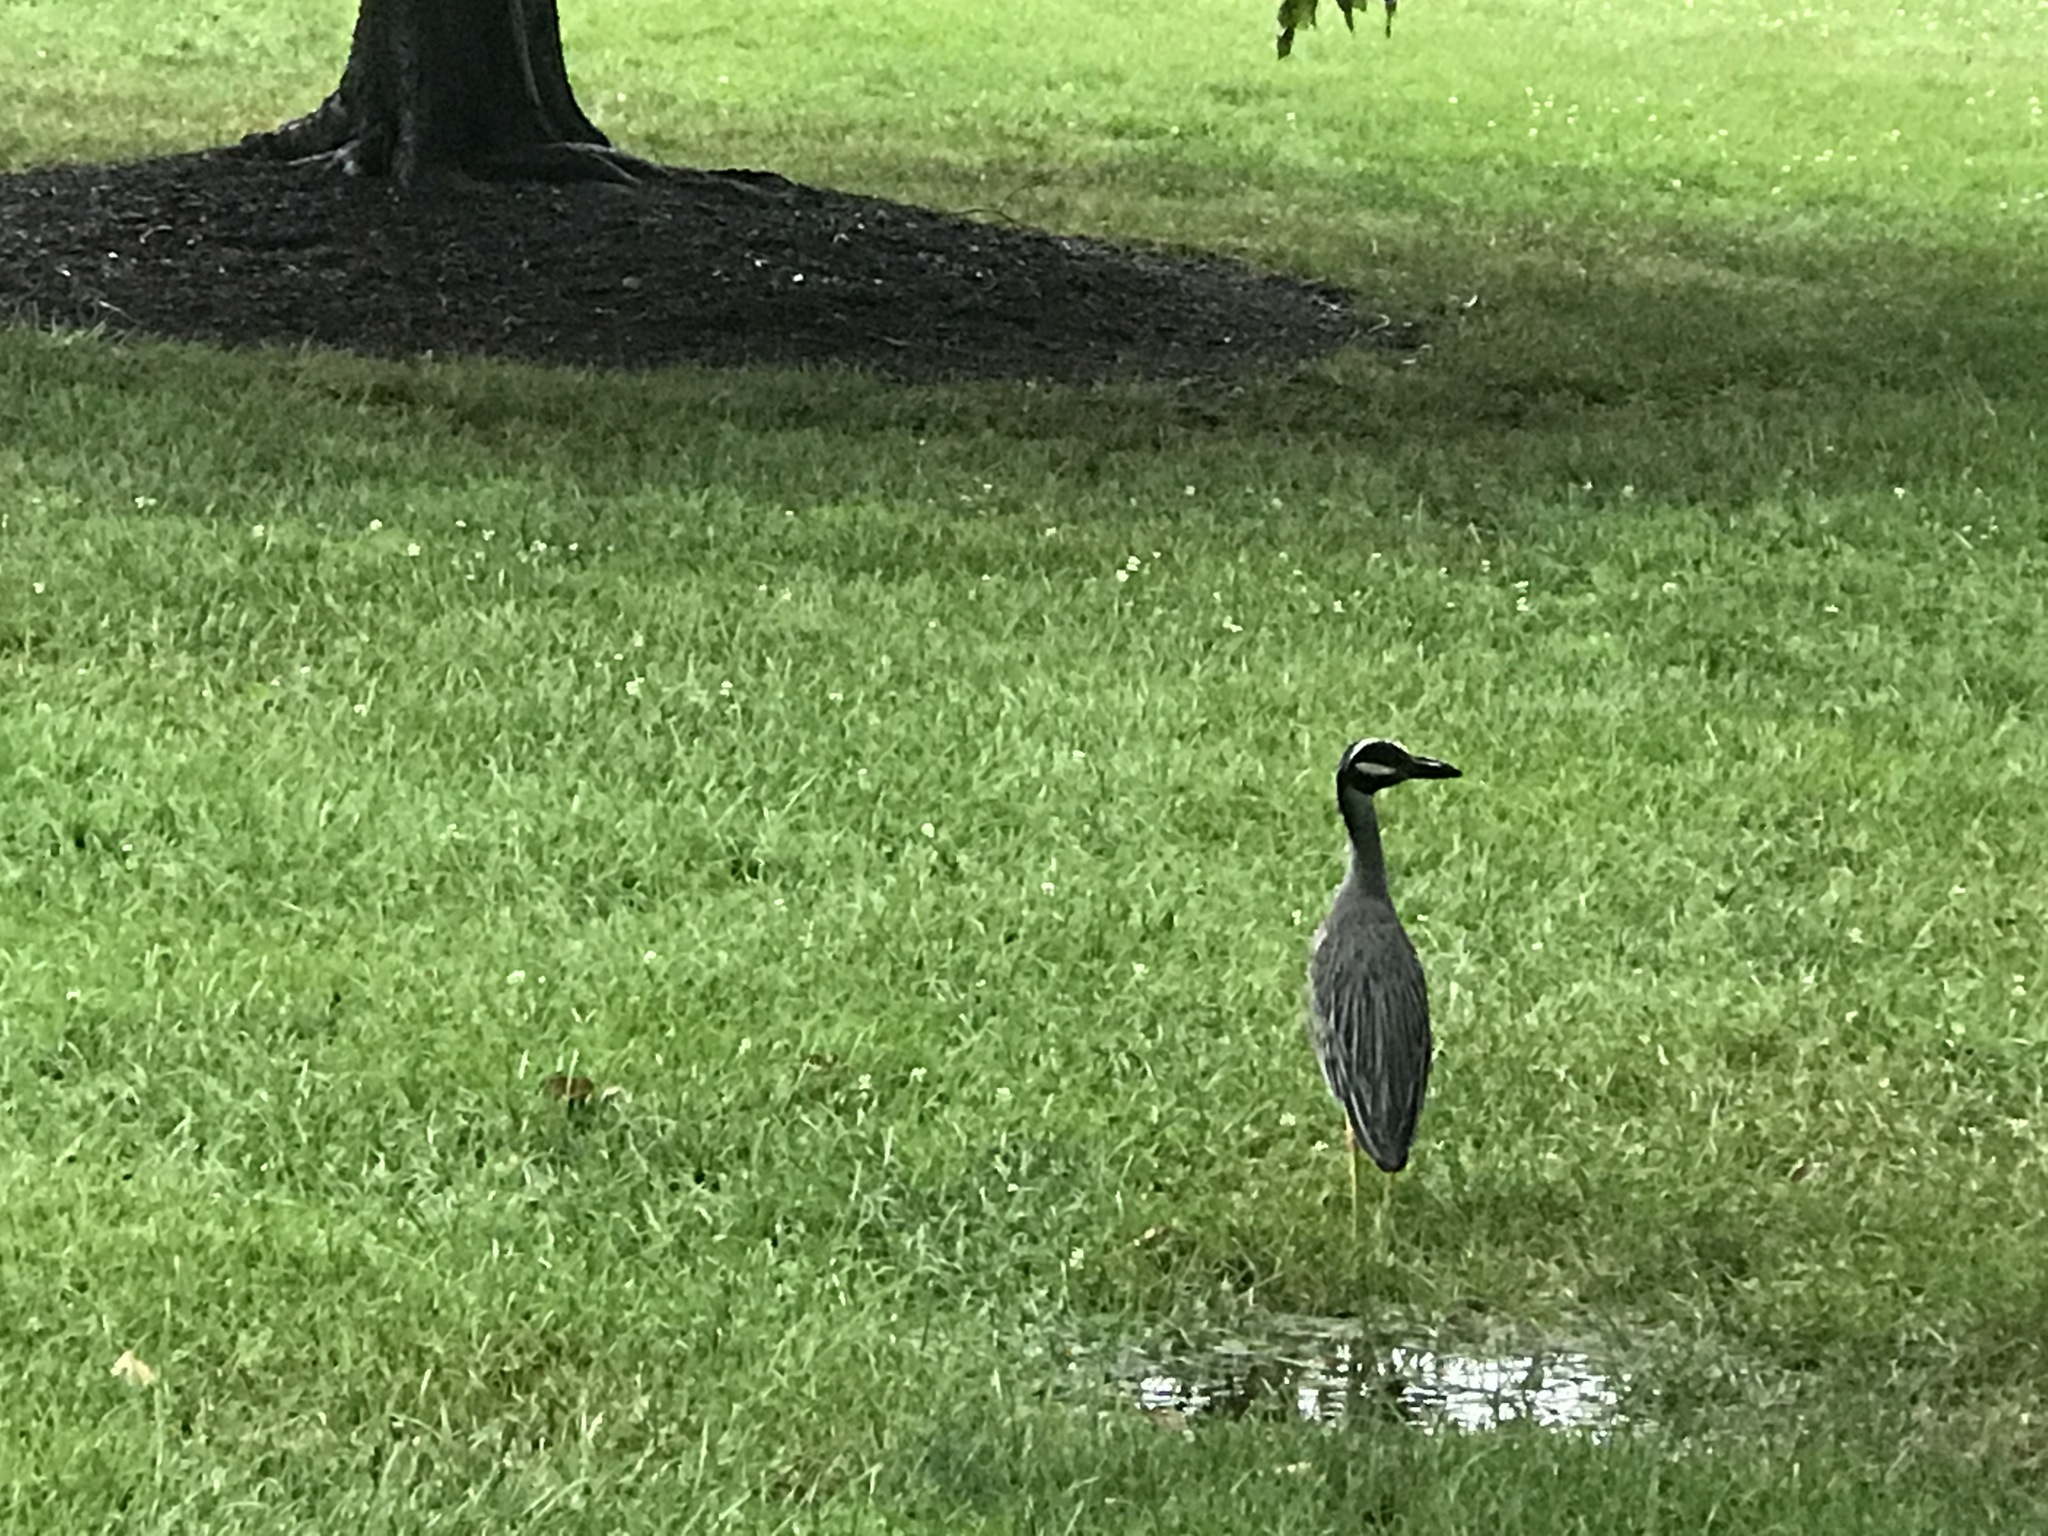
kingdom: Animalia
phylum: Chordata
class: Aves
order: Pelecaniformes
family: Ardeidae
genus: Nyctanassa
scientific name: Nyctanassa violacea
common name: Yellow-crowned night heron
